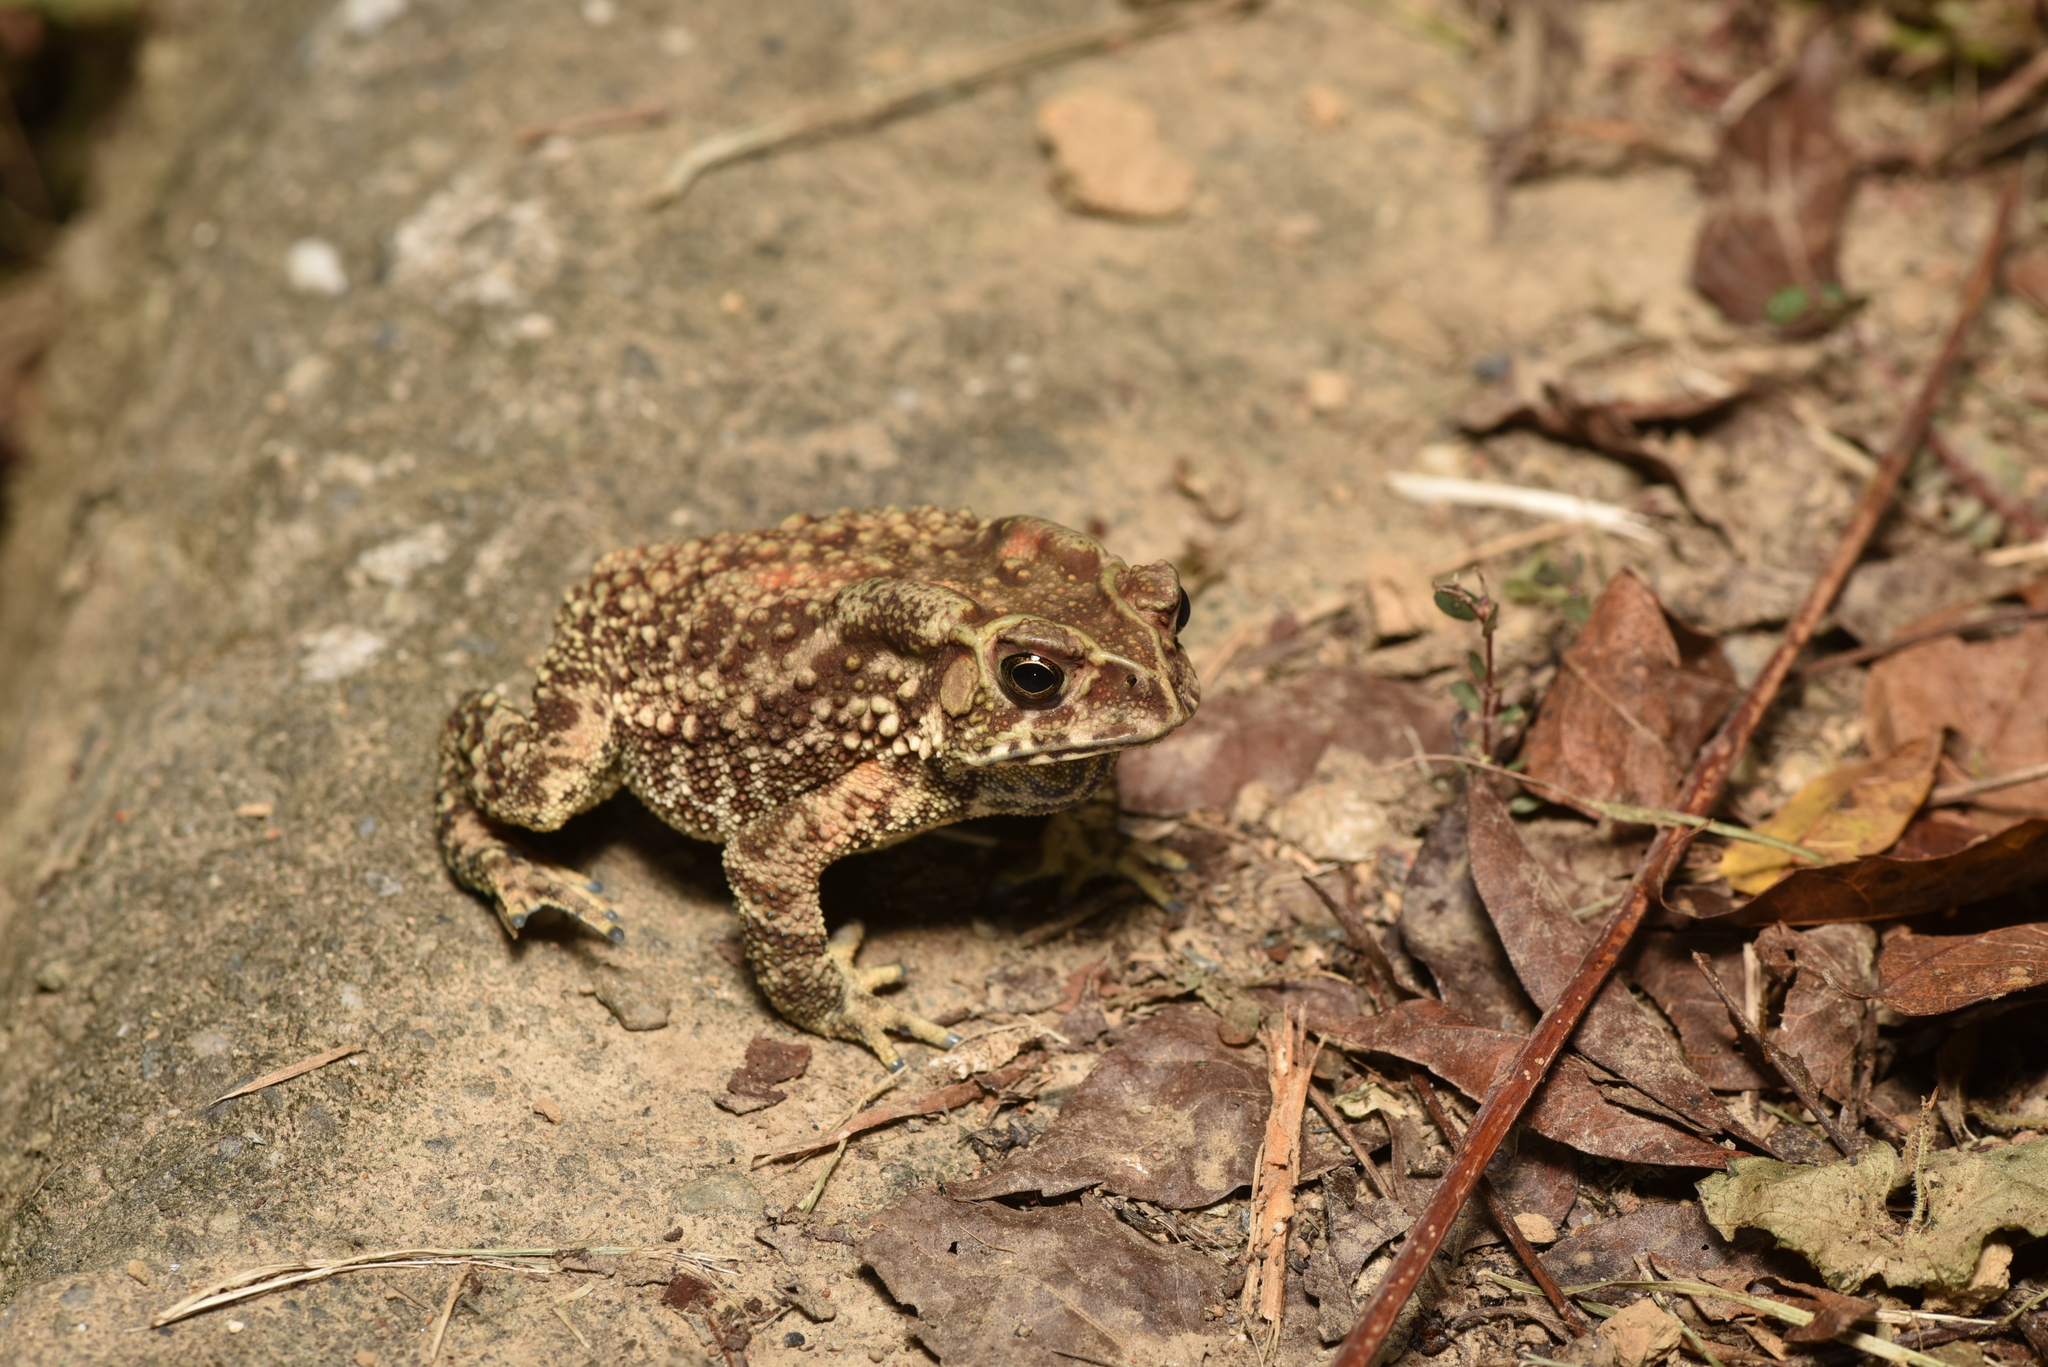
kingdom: Animalia
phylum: Chordata
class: Amphibia
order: Anura
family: Bufonidae
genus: Duttaphrynus
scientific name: Duttaphrynus melanostictus
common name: Common sunda toad
